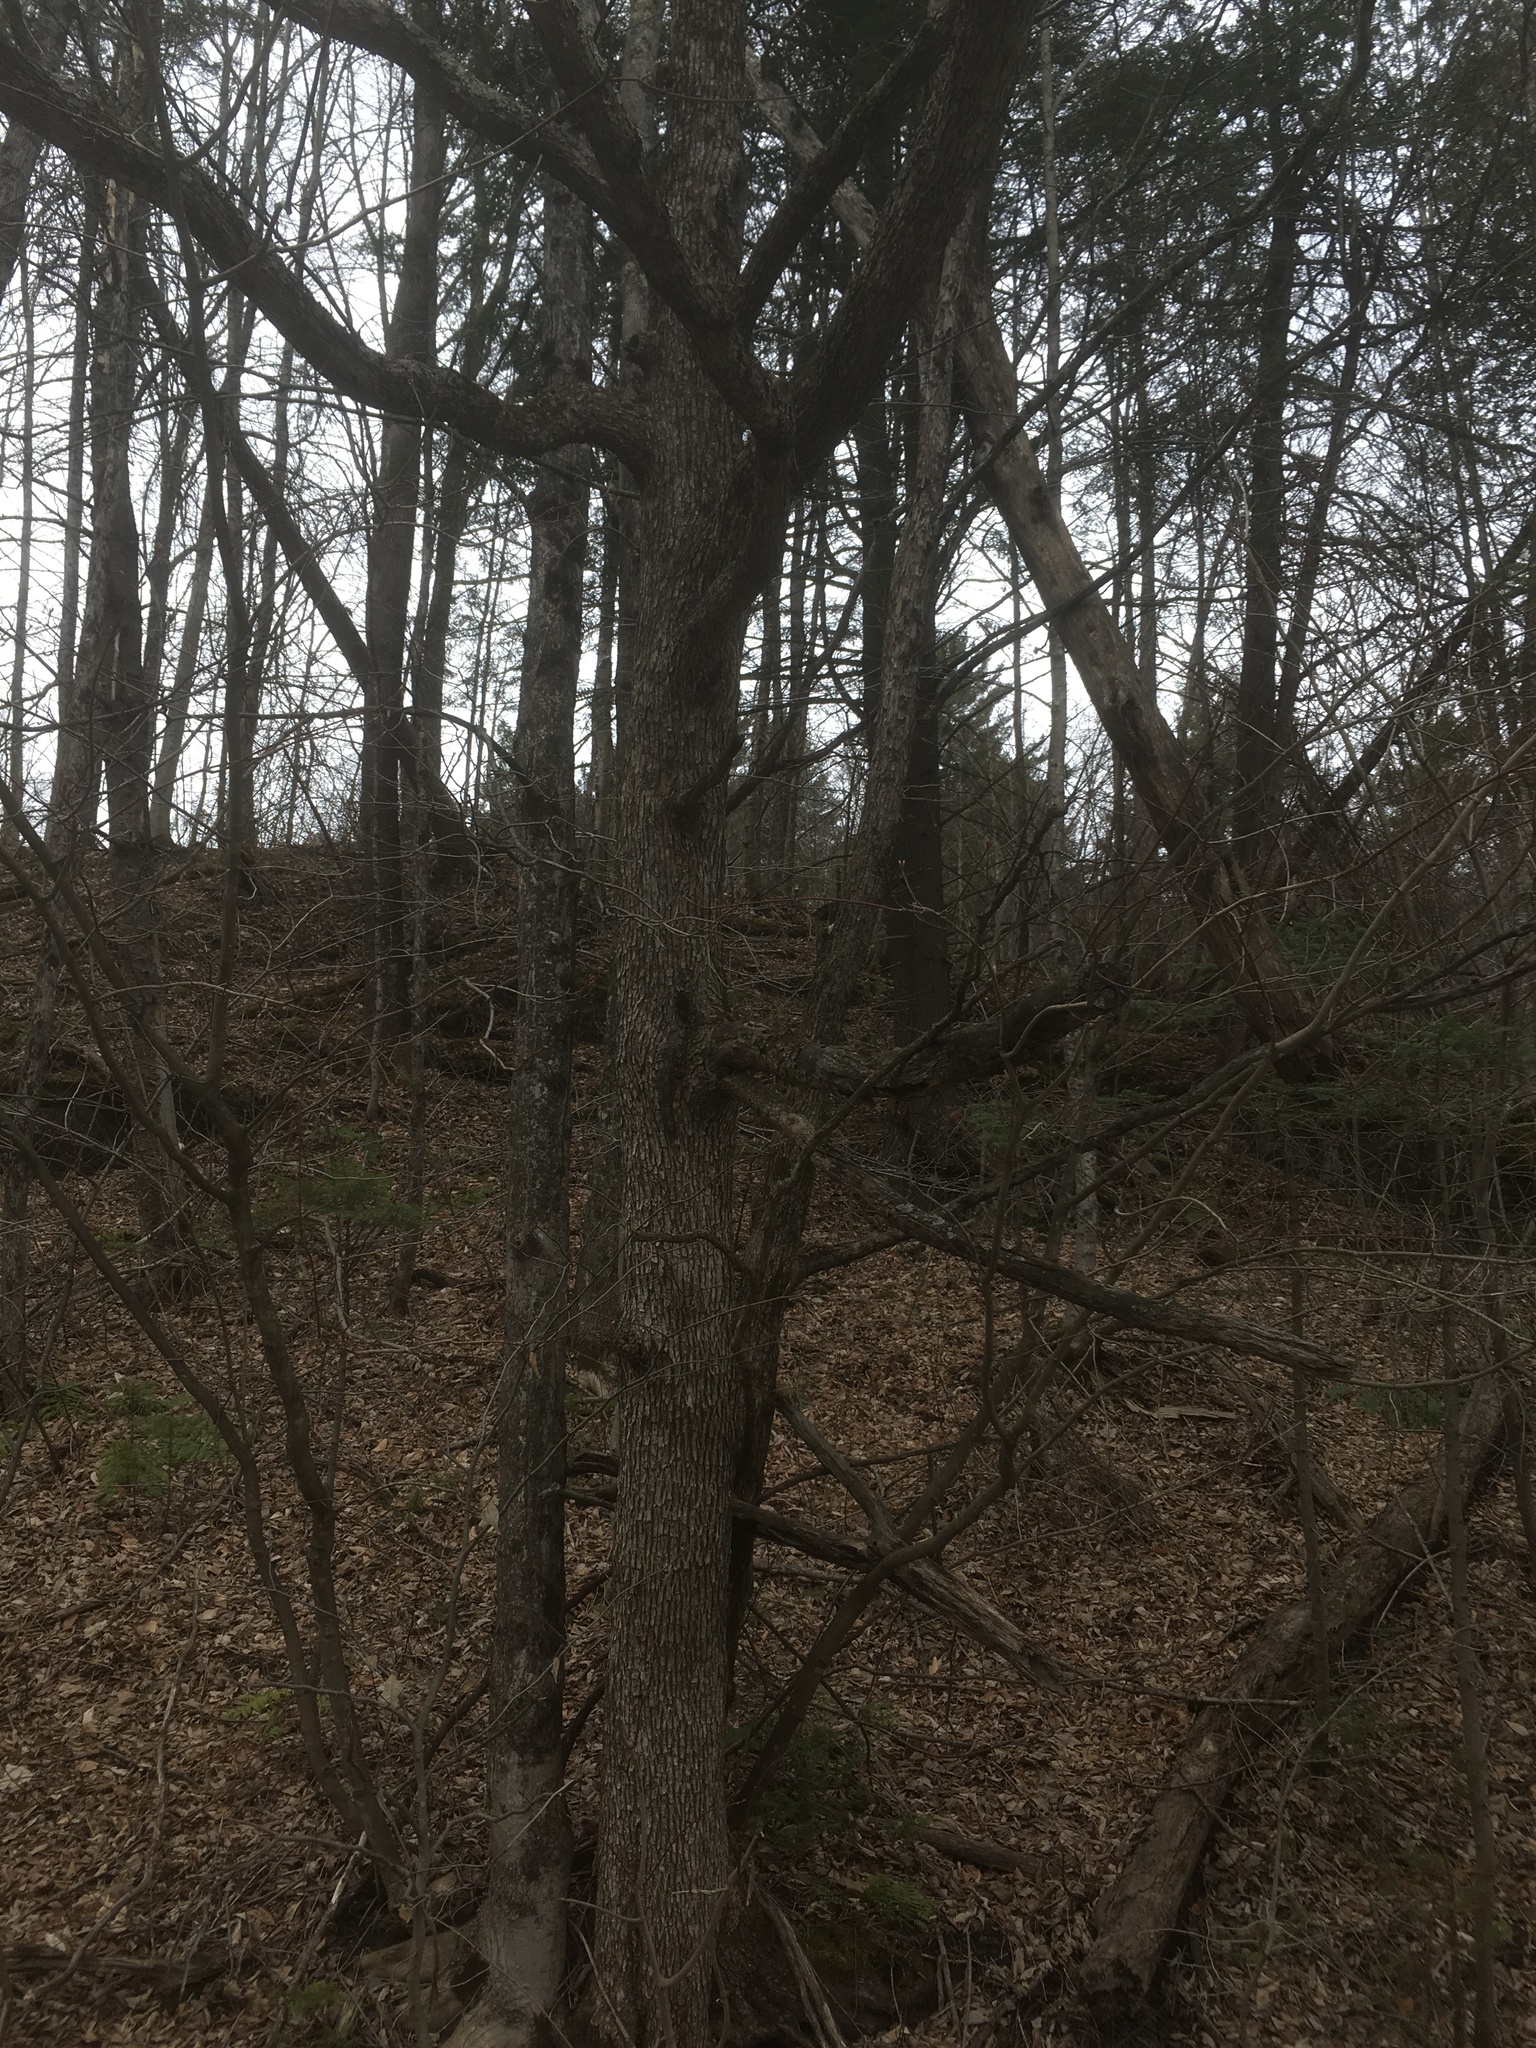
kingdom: Plantae
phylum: Tracheophyta
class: Magnoliopsida
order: Fagales
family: Betulaceae
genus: Ostrya
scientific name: Ostrya virginiana
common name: Ironwood
